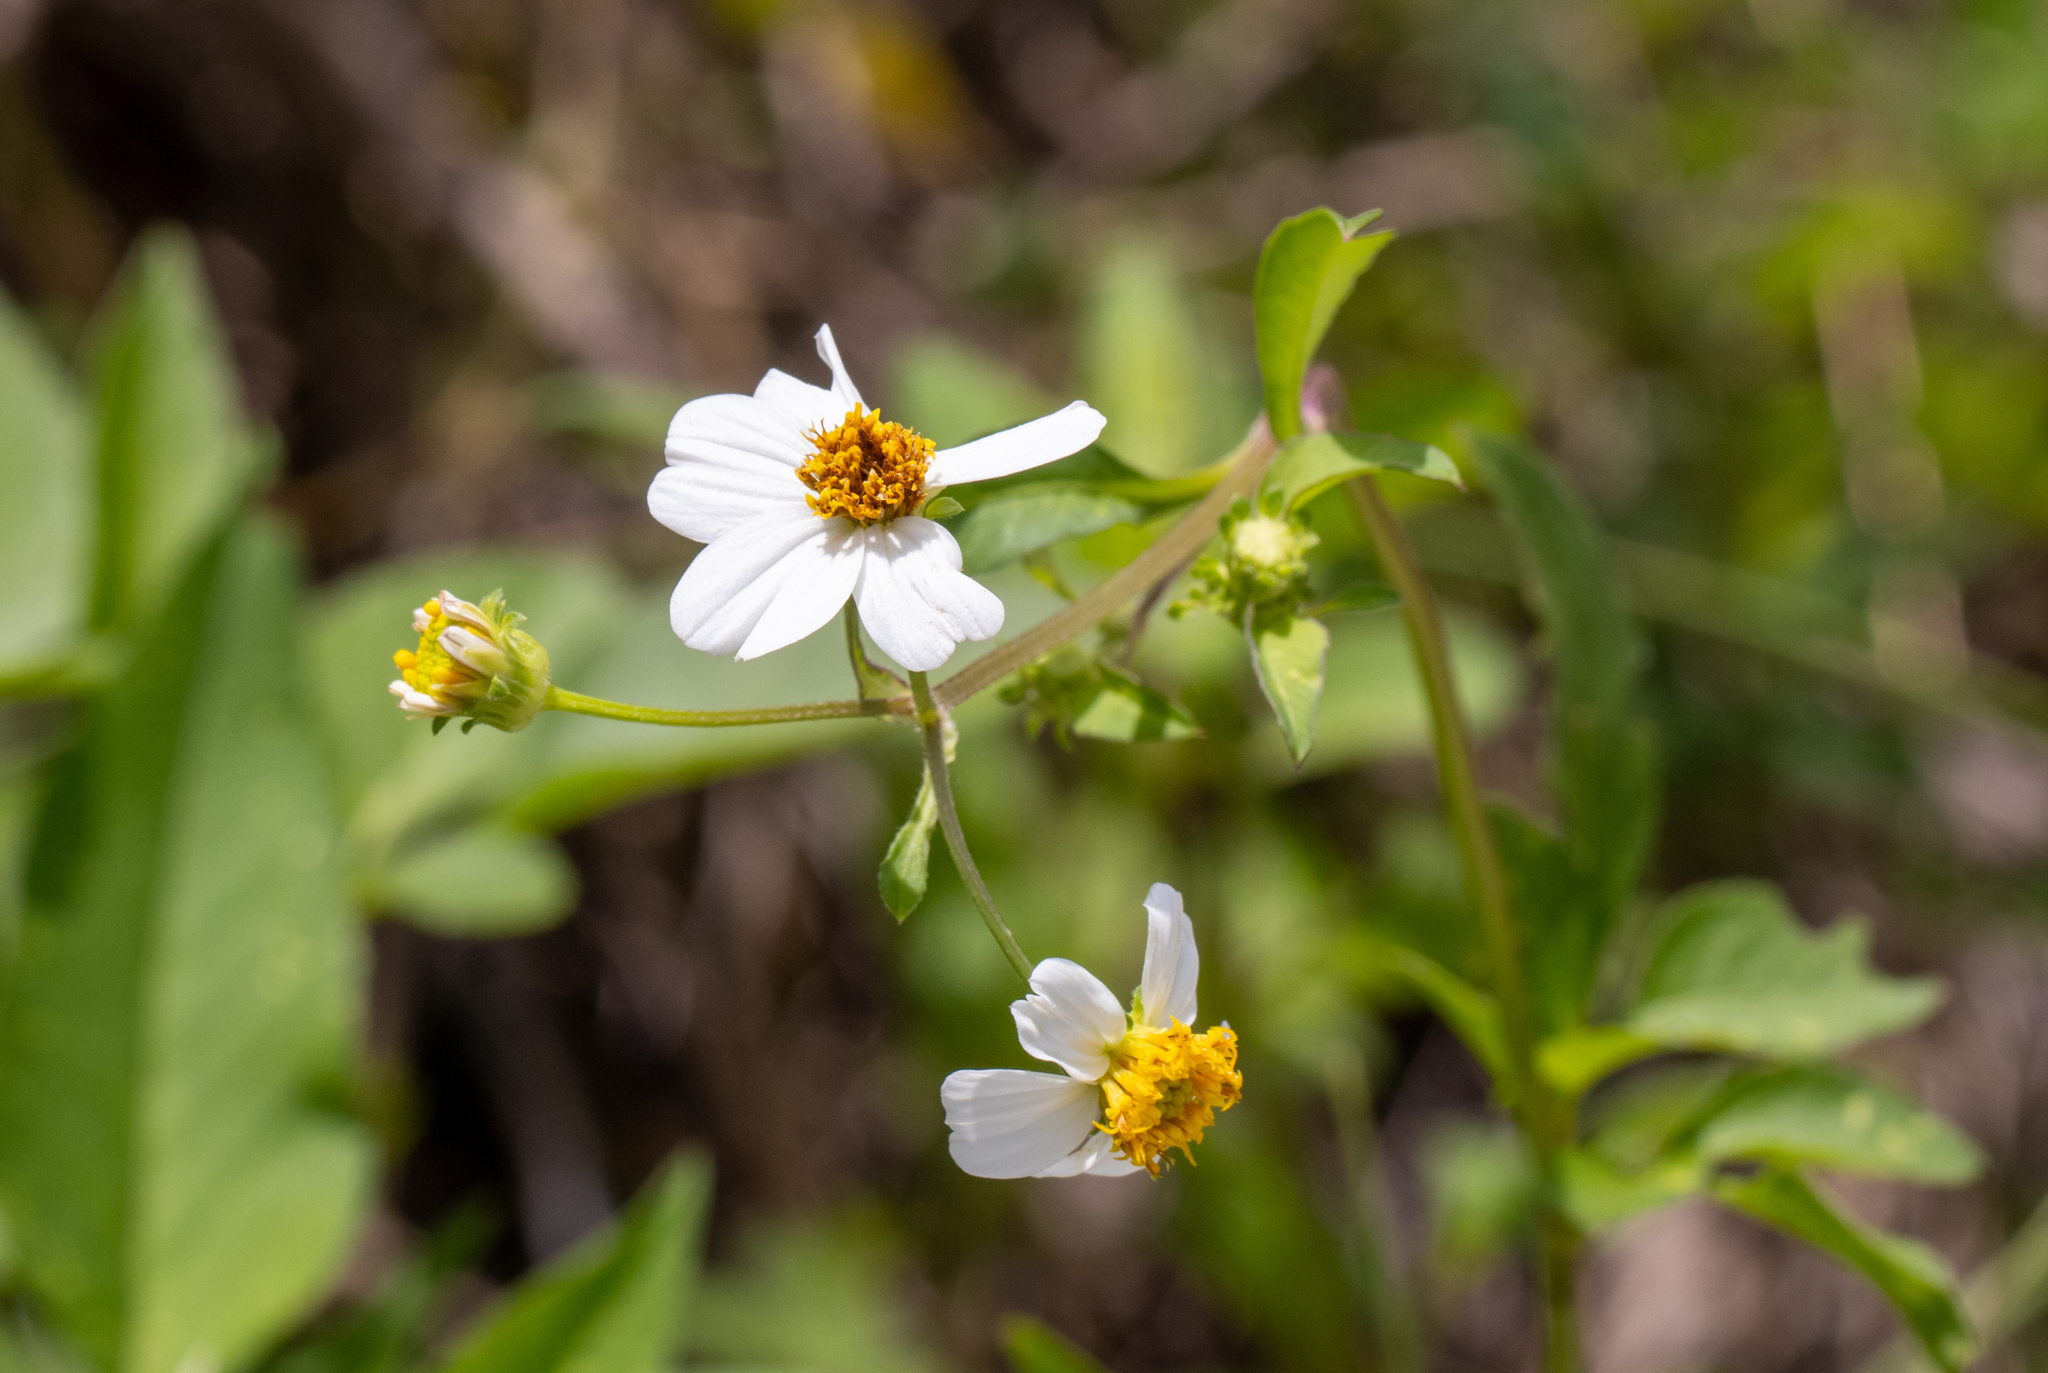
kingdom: Plantae
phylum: Tracheophyta
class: Magnoliopsida
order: Asterales
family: Asteraceae
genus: Bidens
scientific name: Bidens alba
